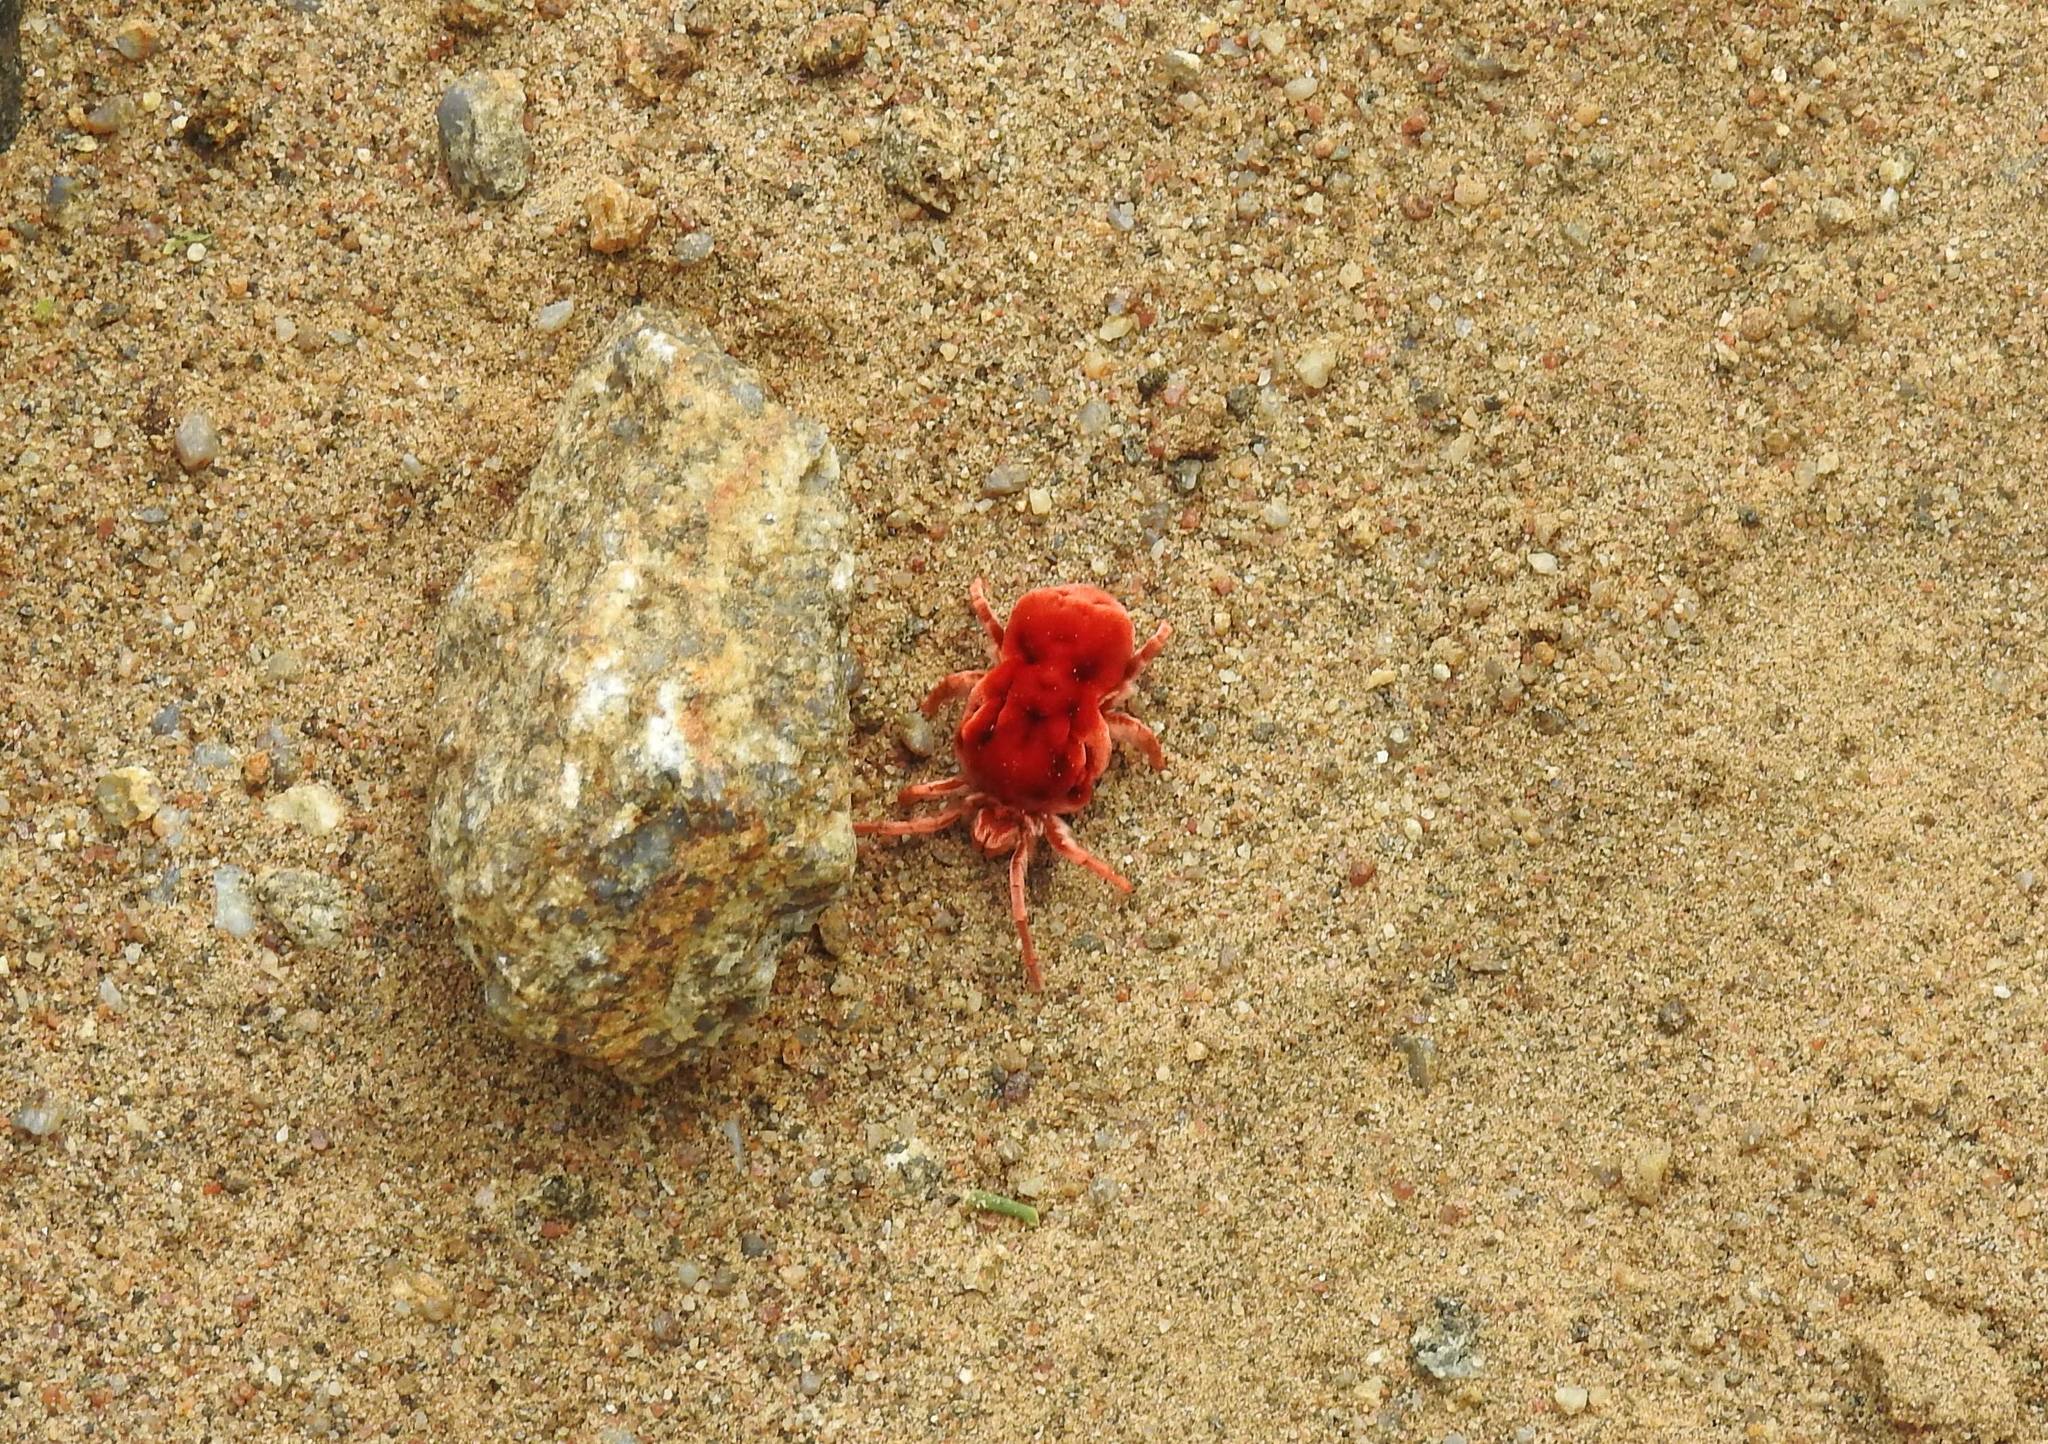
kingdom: Animalia
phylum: Arthropoda
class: Arachnida
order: Trombidiformes
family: Leeuwenhoekiidae
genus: Dinothrombium
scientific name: Dinothrombium
